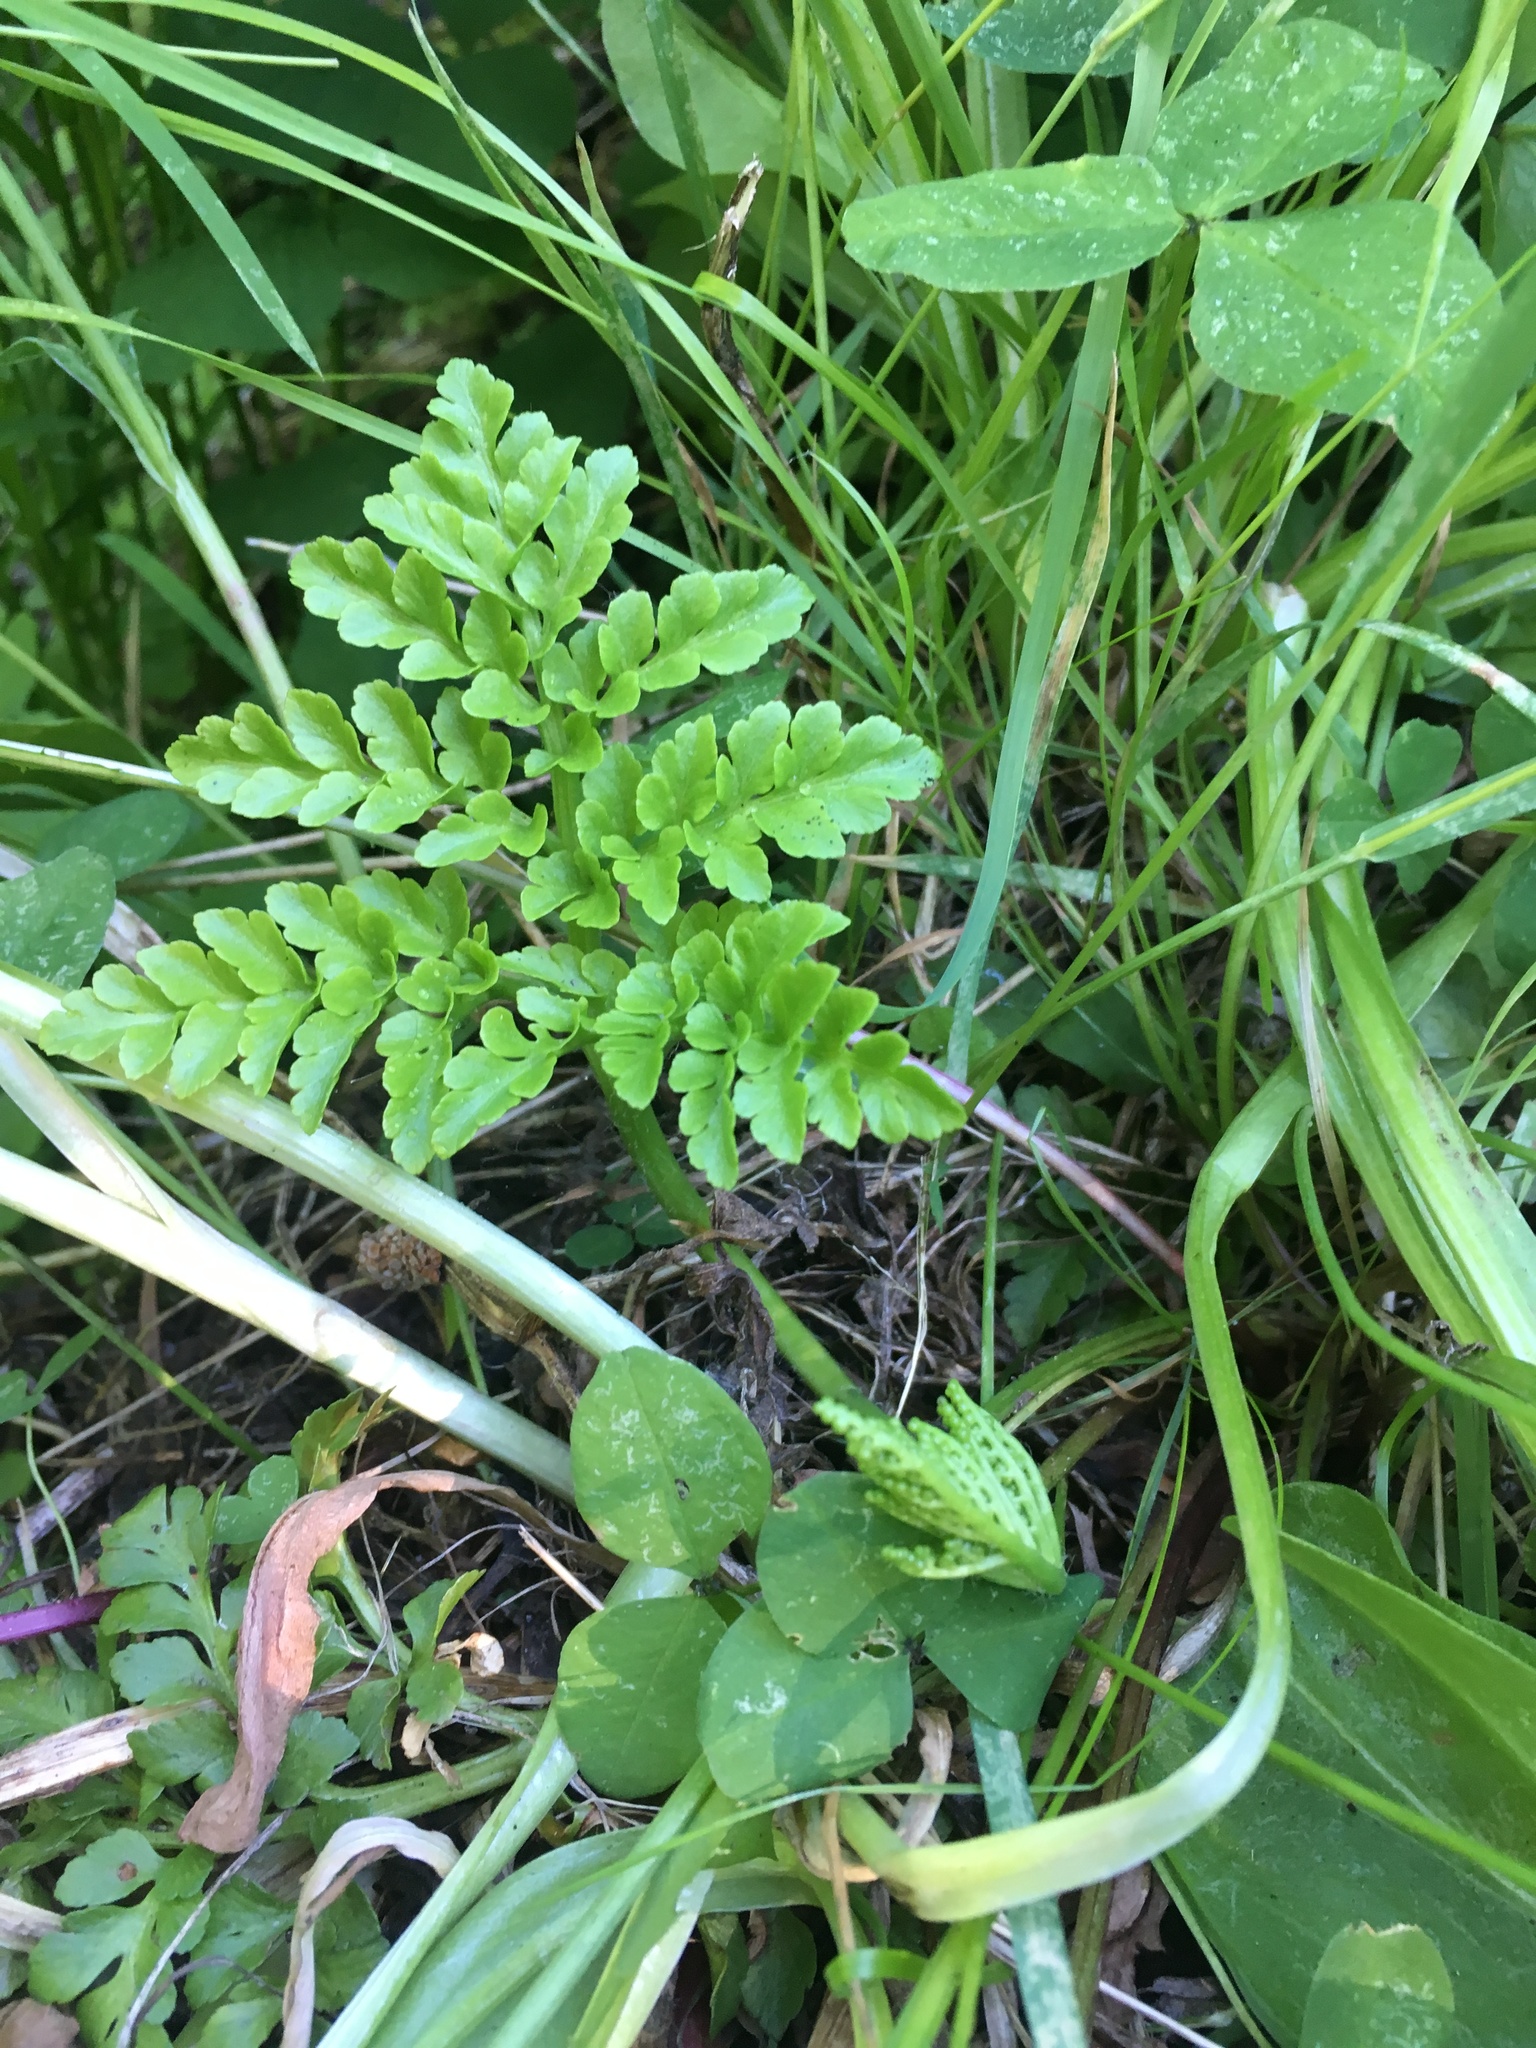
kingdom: Plantae
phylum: Tracheophyta
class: Polypodiopsida
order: Ophioglossales
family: Ophioglossaceae
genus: Sceptridium
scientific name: Sceptridium multifidum
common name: Leathery grape fern
